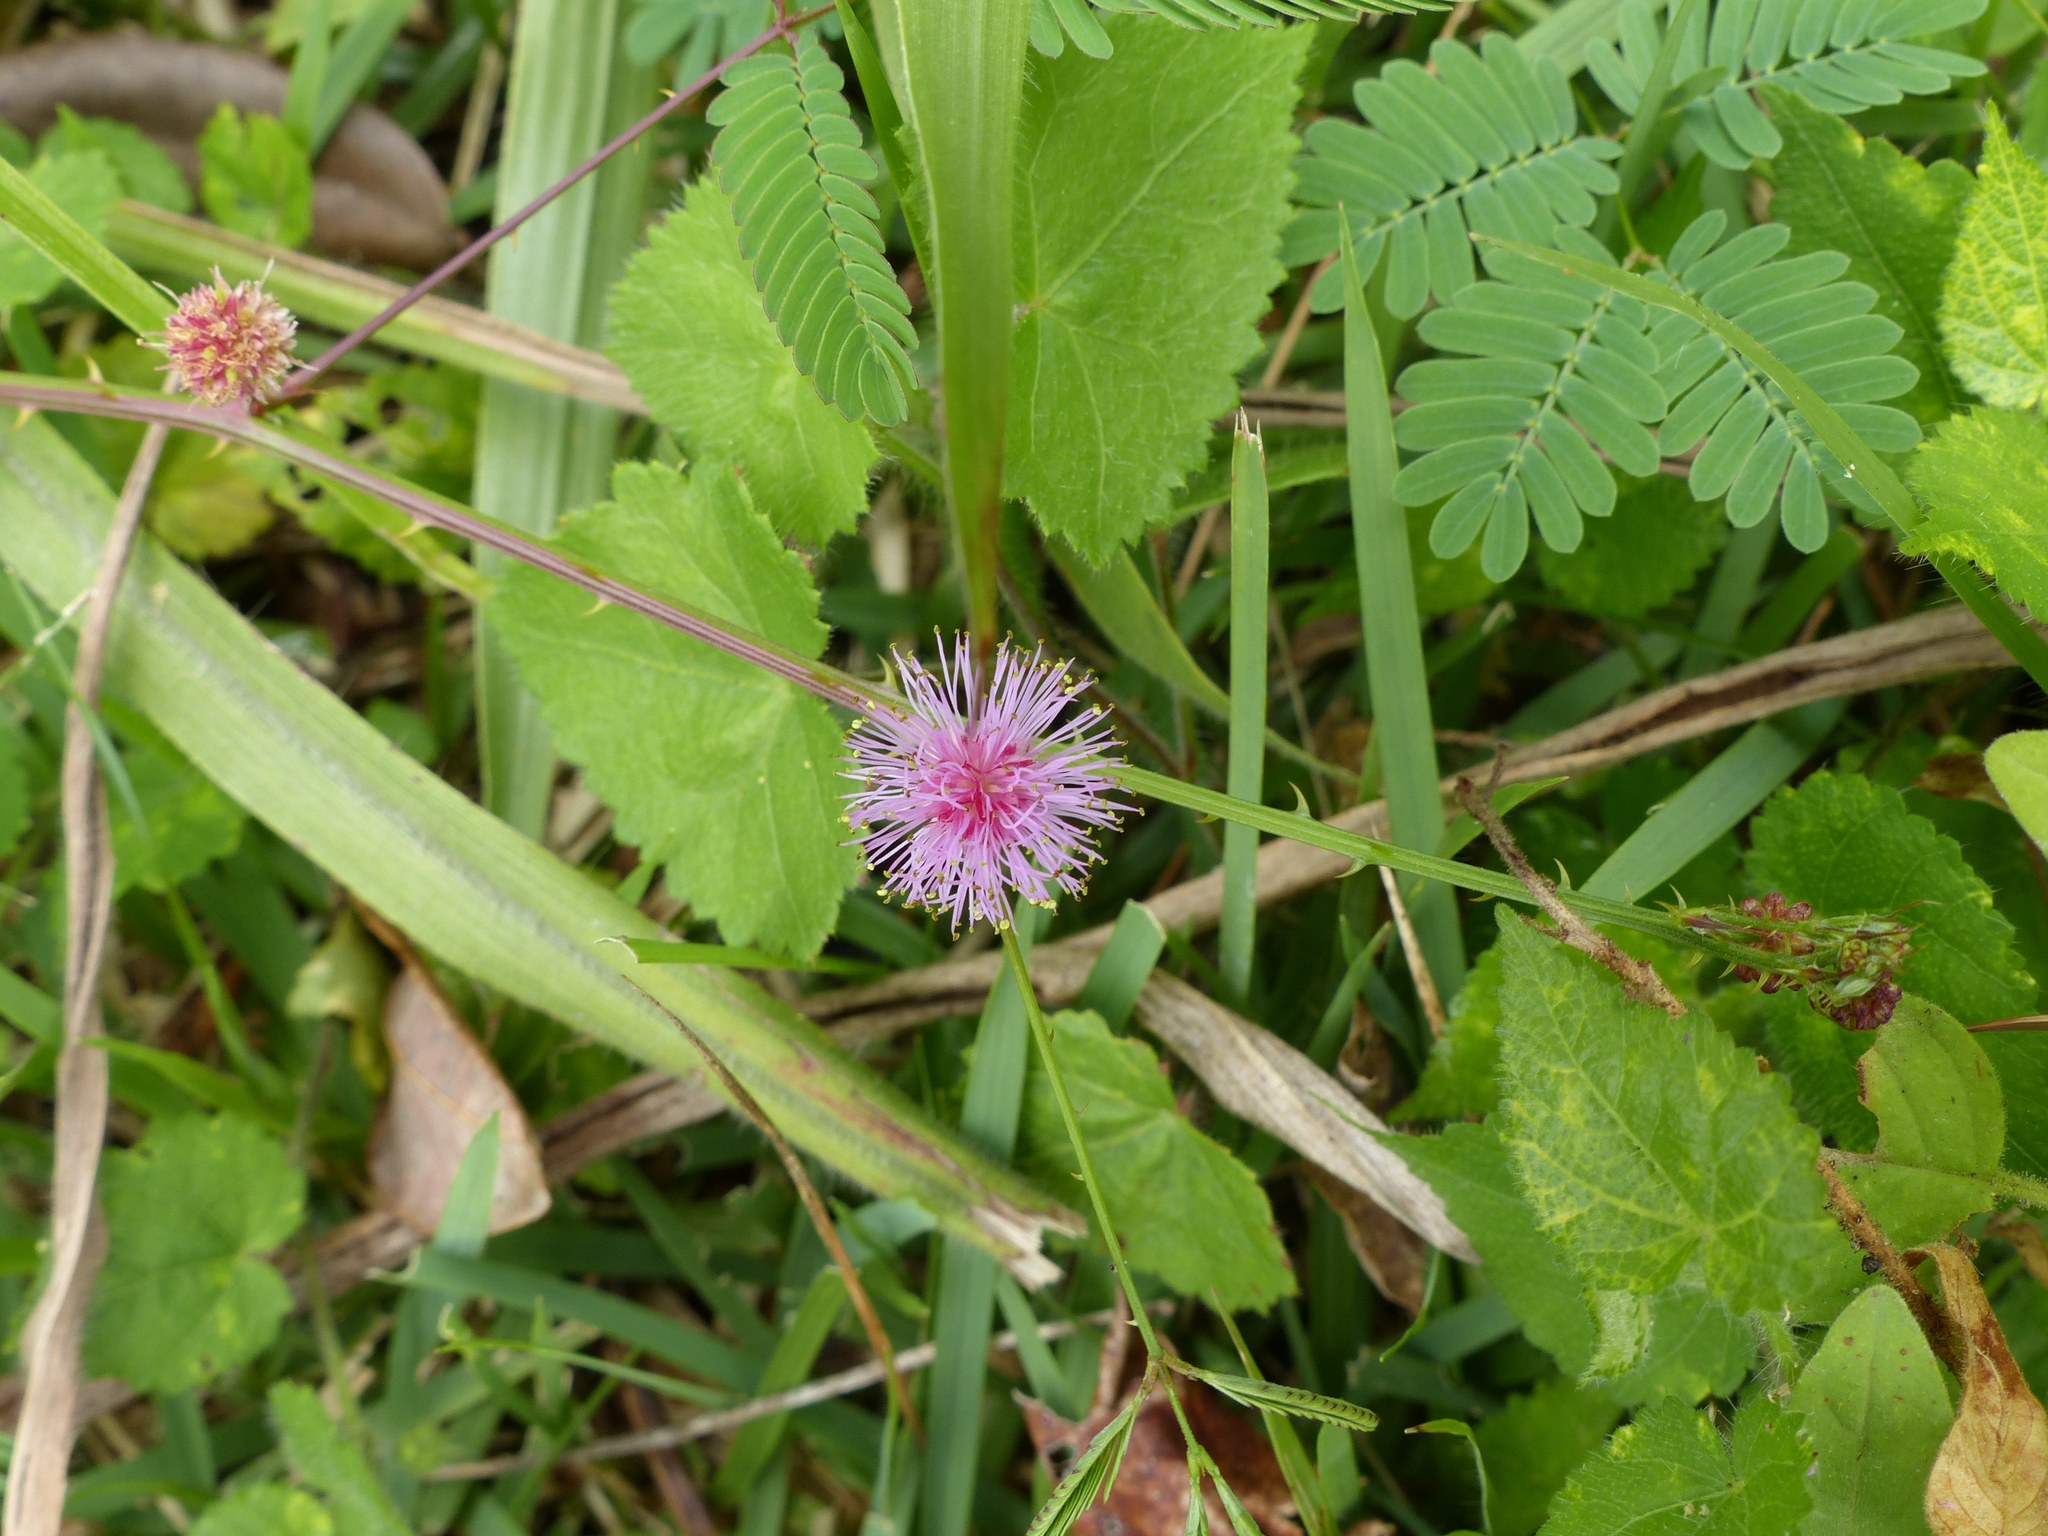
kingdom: Plantae
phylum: Tracheophyta
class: Magnoliopsida
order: Fabales
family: Fabaceae
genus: Mimosa
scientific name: Mimosa candollei
